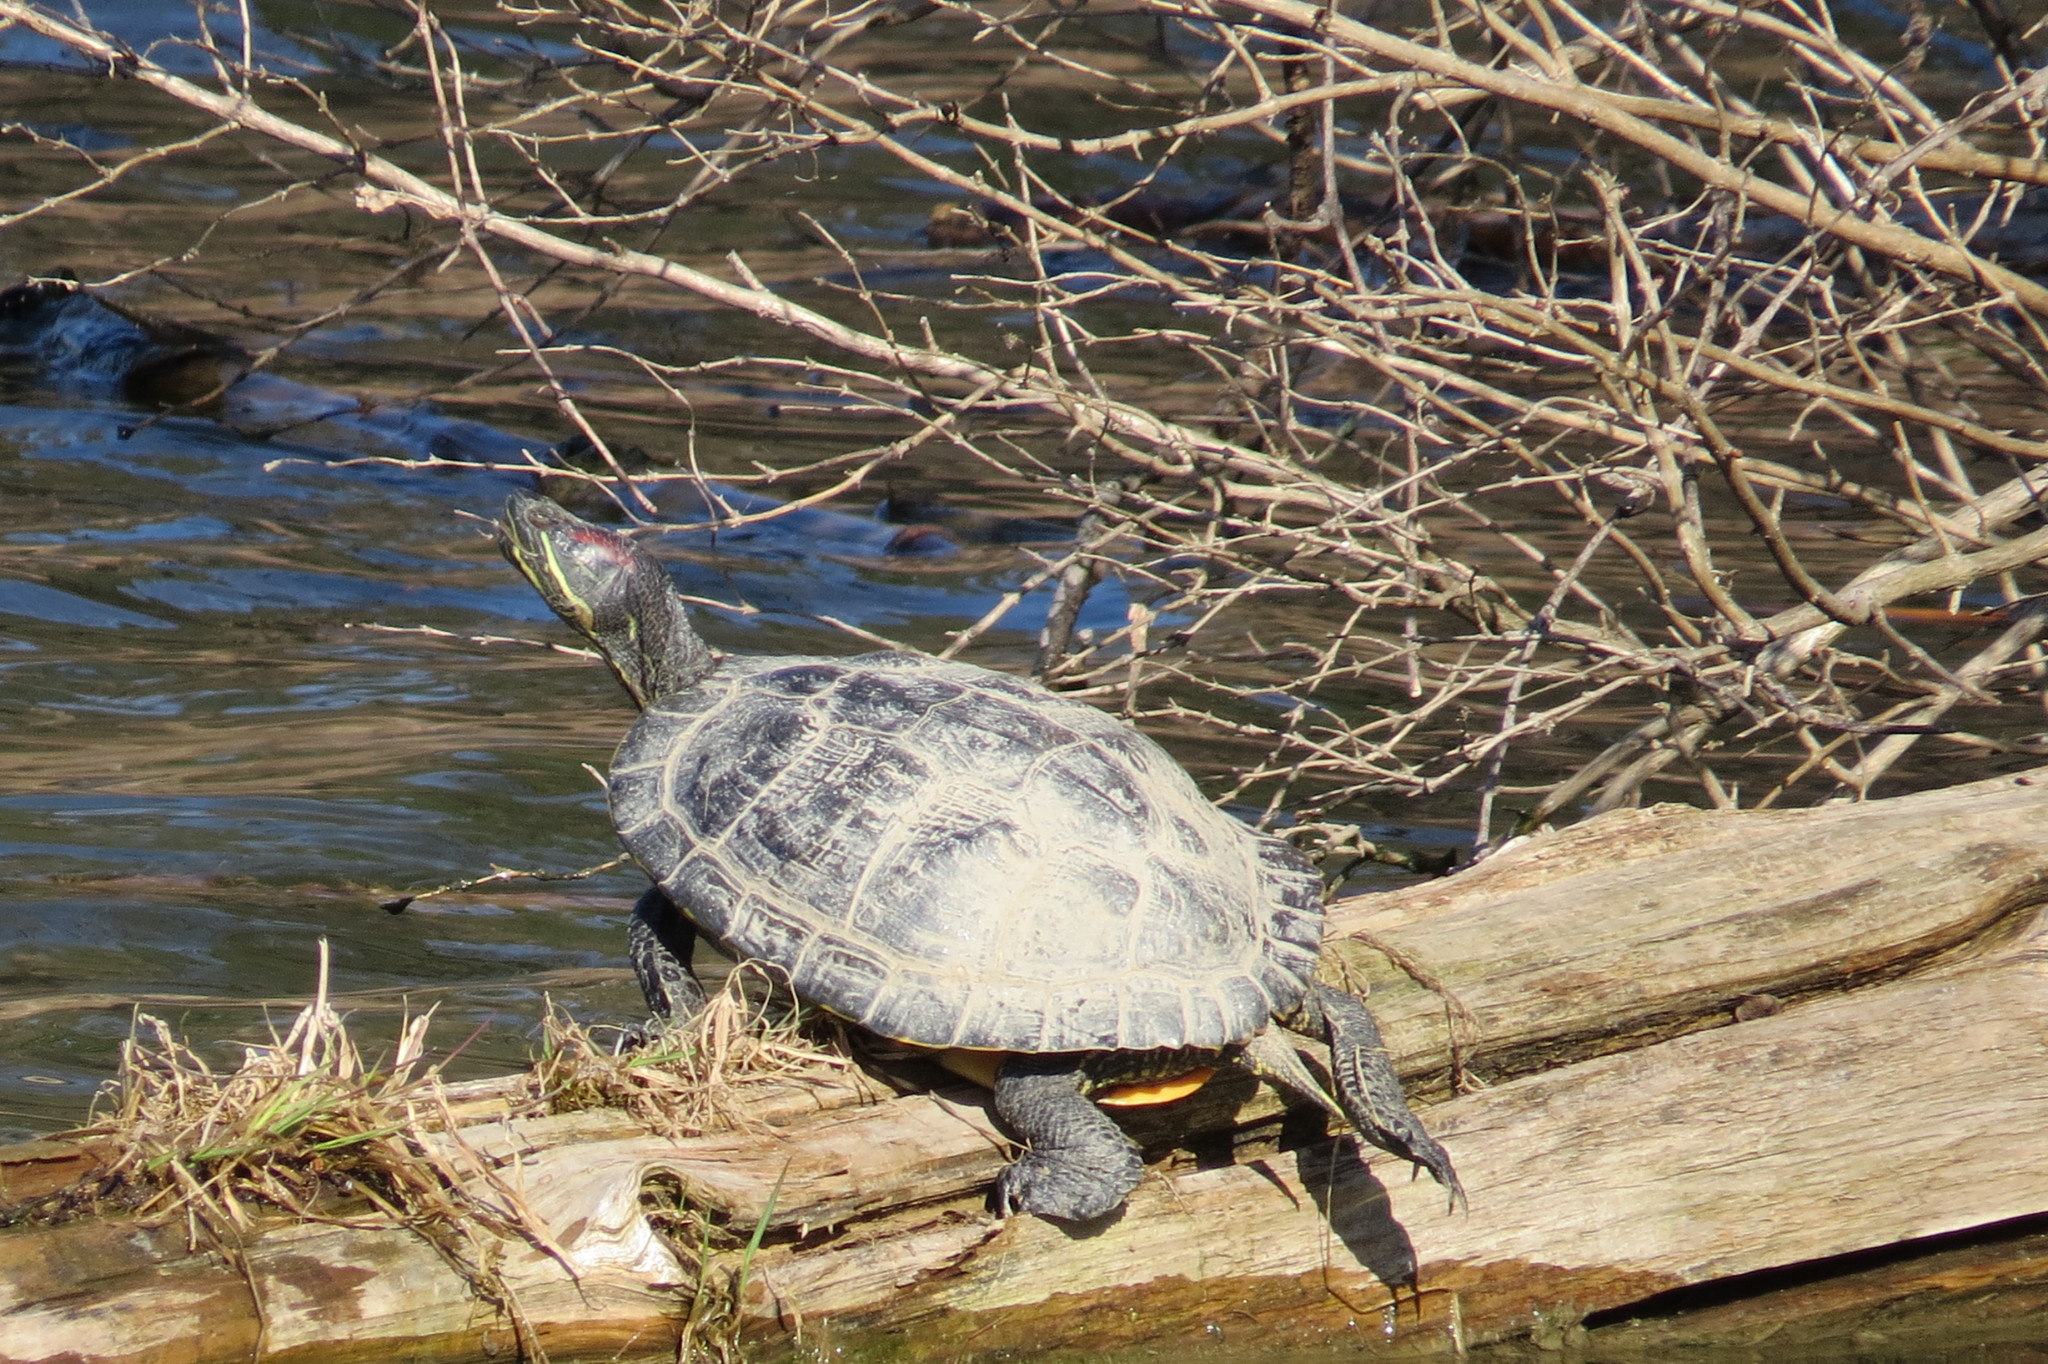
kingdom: Animalia
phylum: Chordata
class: Testudines
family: Emydidae
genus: Trachemys
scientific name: Trachemys scripta
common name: Slider
